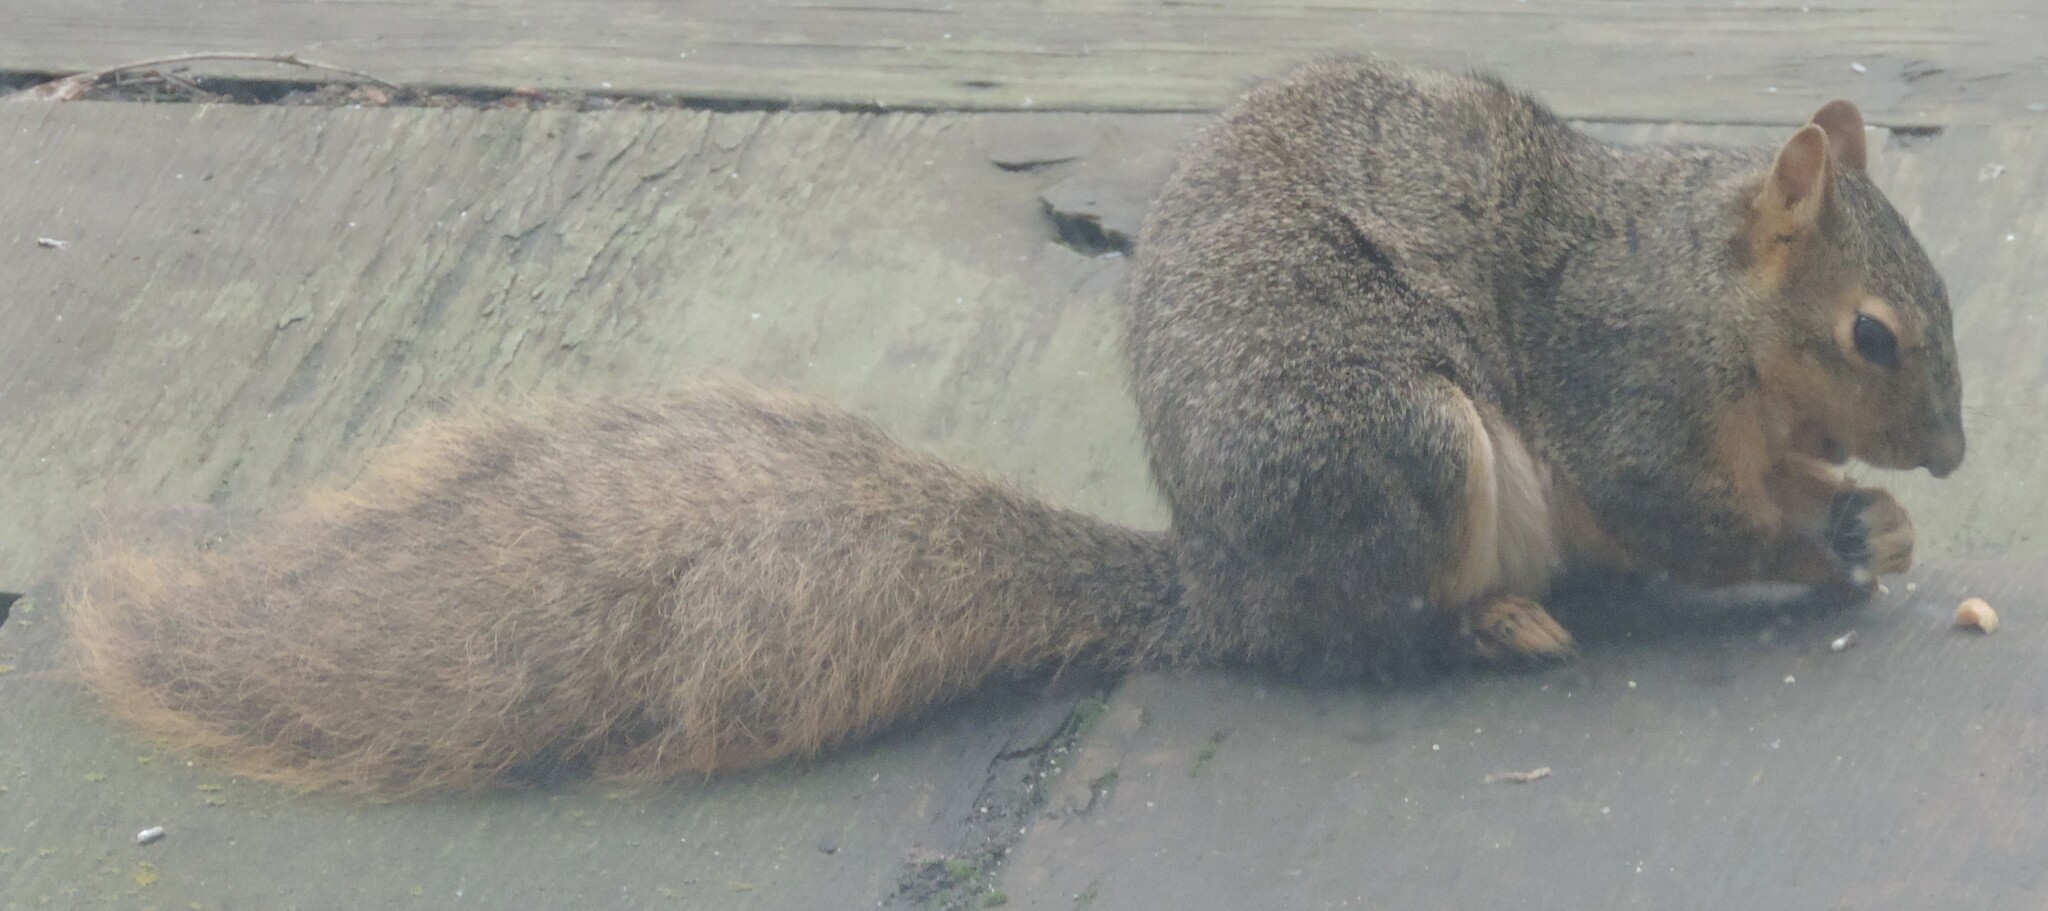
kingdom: Animalia
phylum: Chordata
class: Mammalia
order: Rodentia
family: Sciuridae
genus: Sciurus
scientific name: Sciurus niger
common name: Fox squirrel
